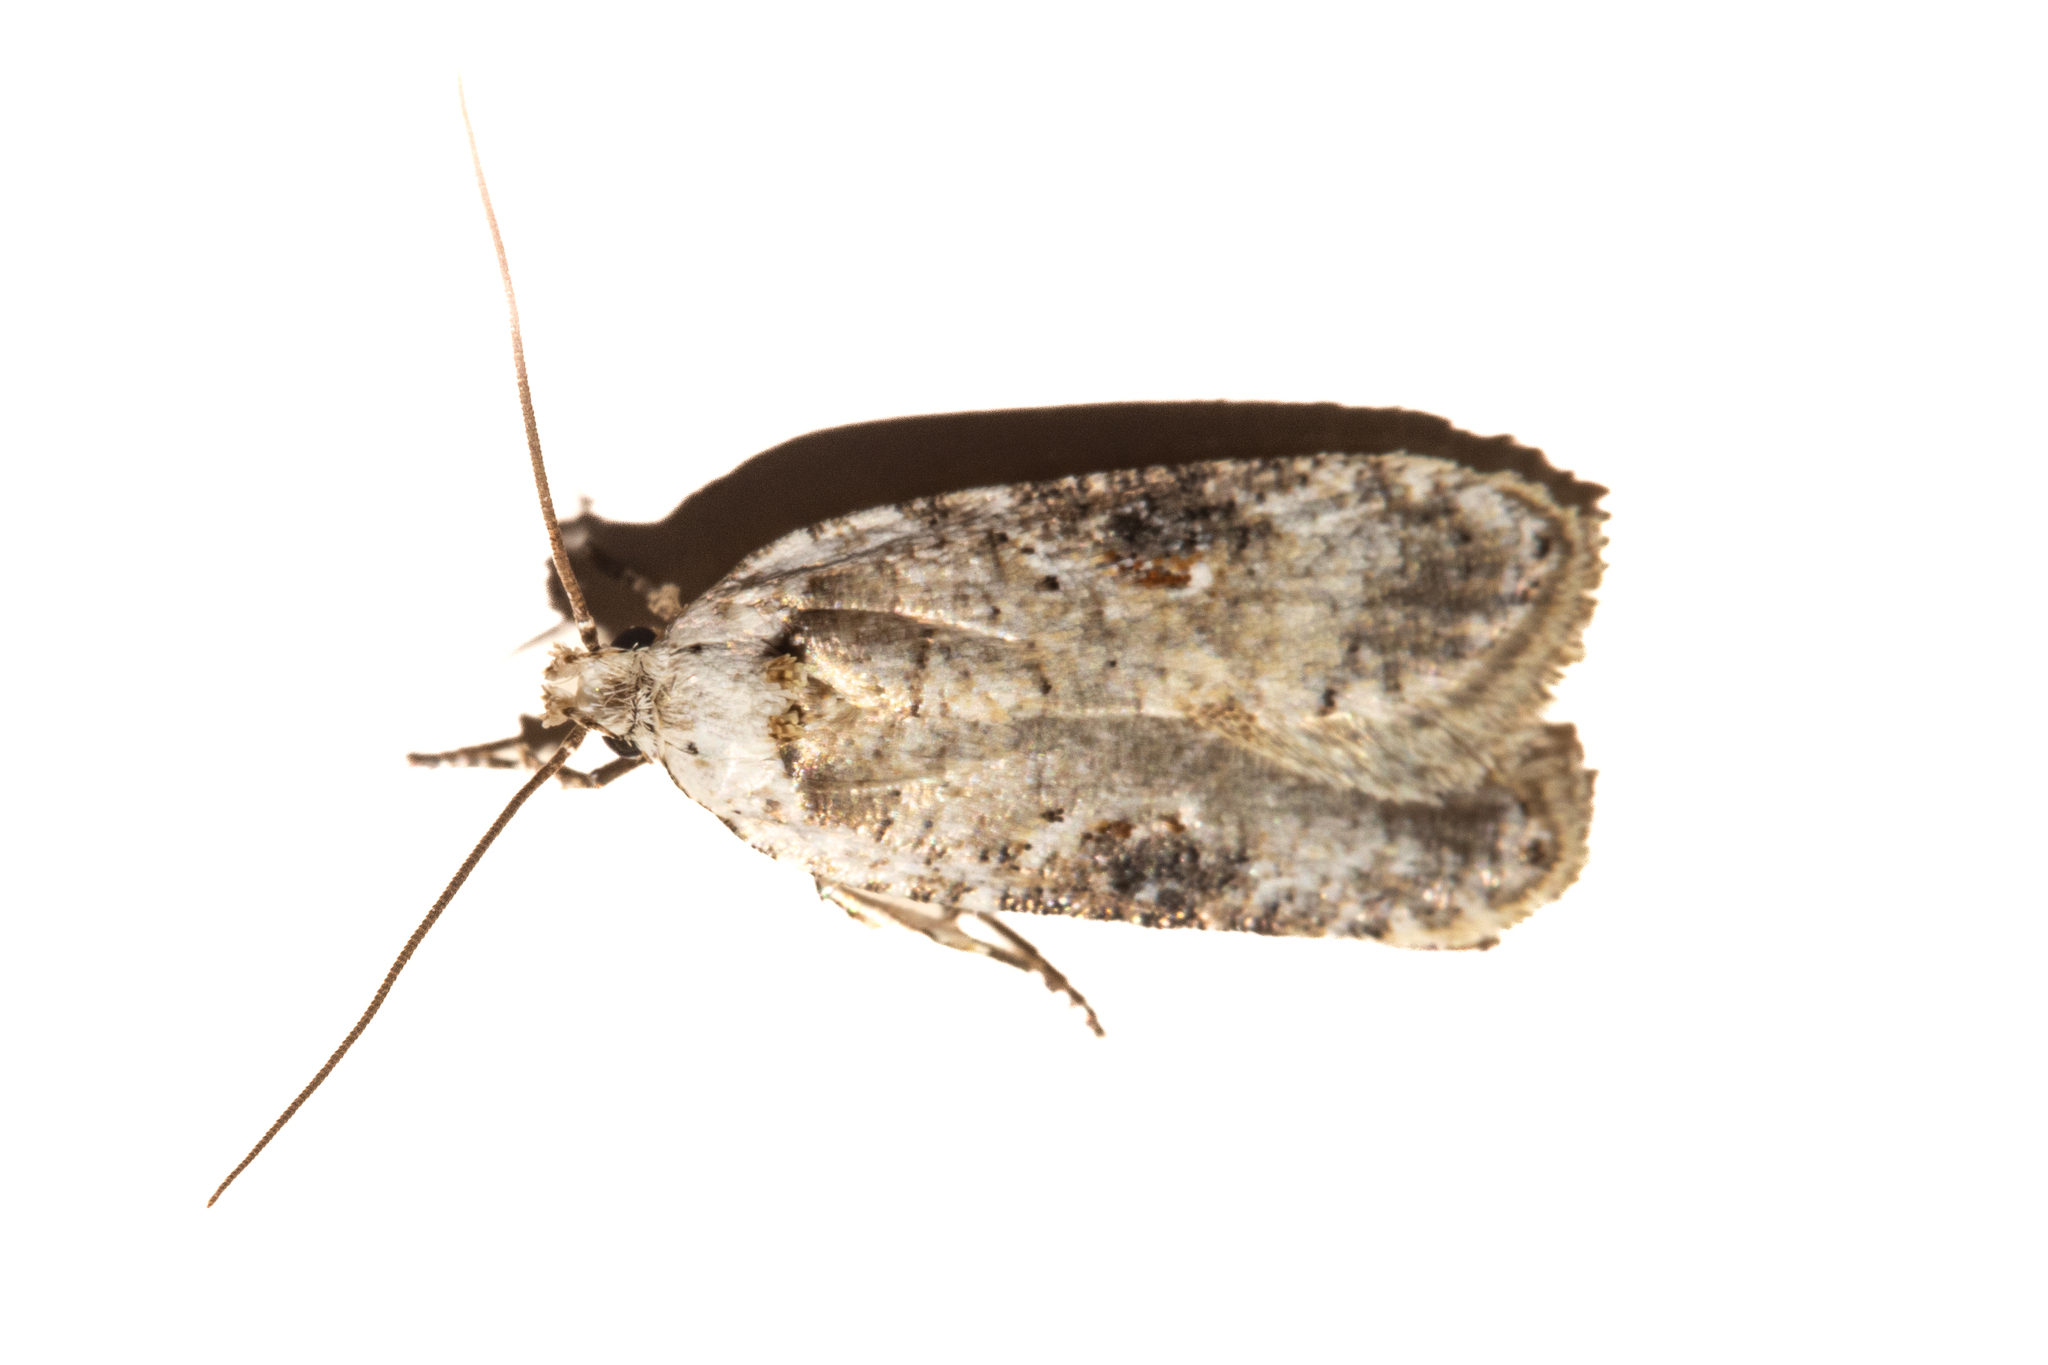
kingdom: Animalia
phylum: Arthropoda
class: Insecta
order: Lepidoptera
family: Depressariidae
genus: Agonopterix
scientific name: Agonopterix alstroemeriana
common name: Moth
